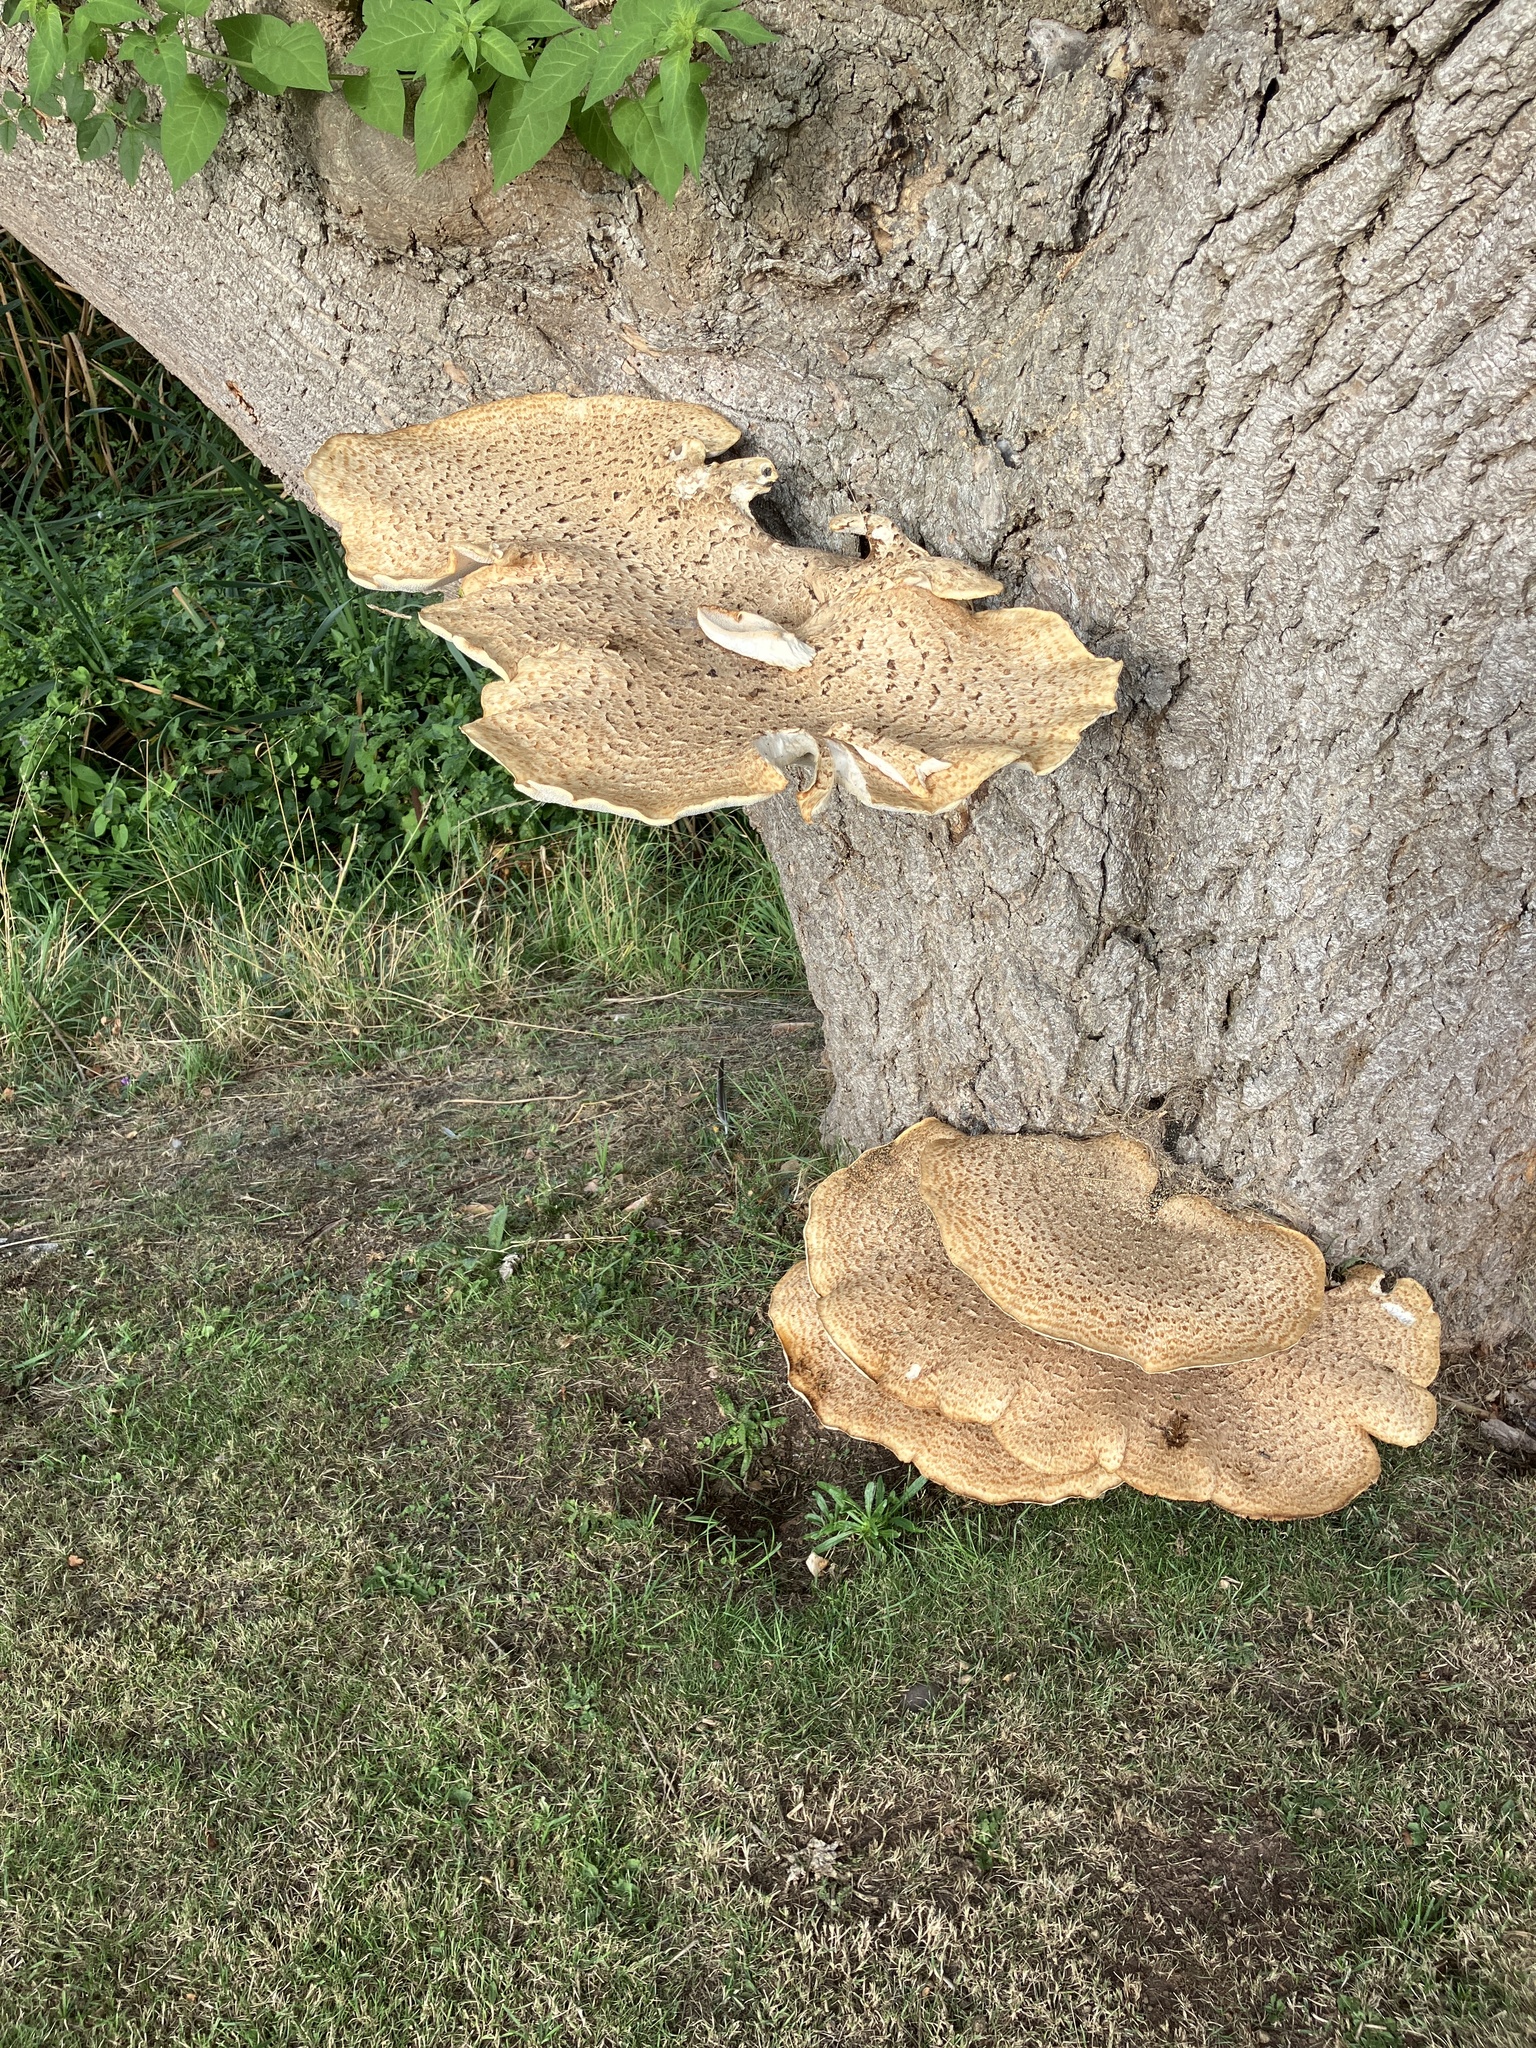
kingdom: Fungi
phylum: Basidiomycota
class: Agaricomycetes
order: Polyporales
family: Polyporaceae
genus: Cerioporus
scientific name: Cerioporus squamosus
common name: Dryad's saddle
